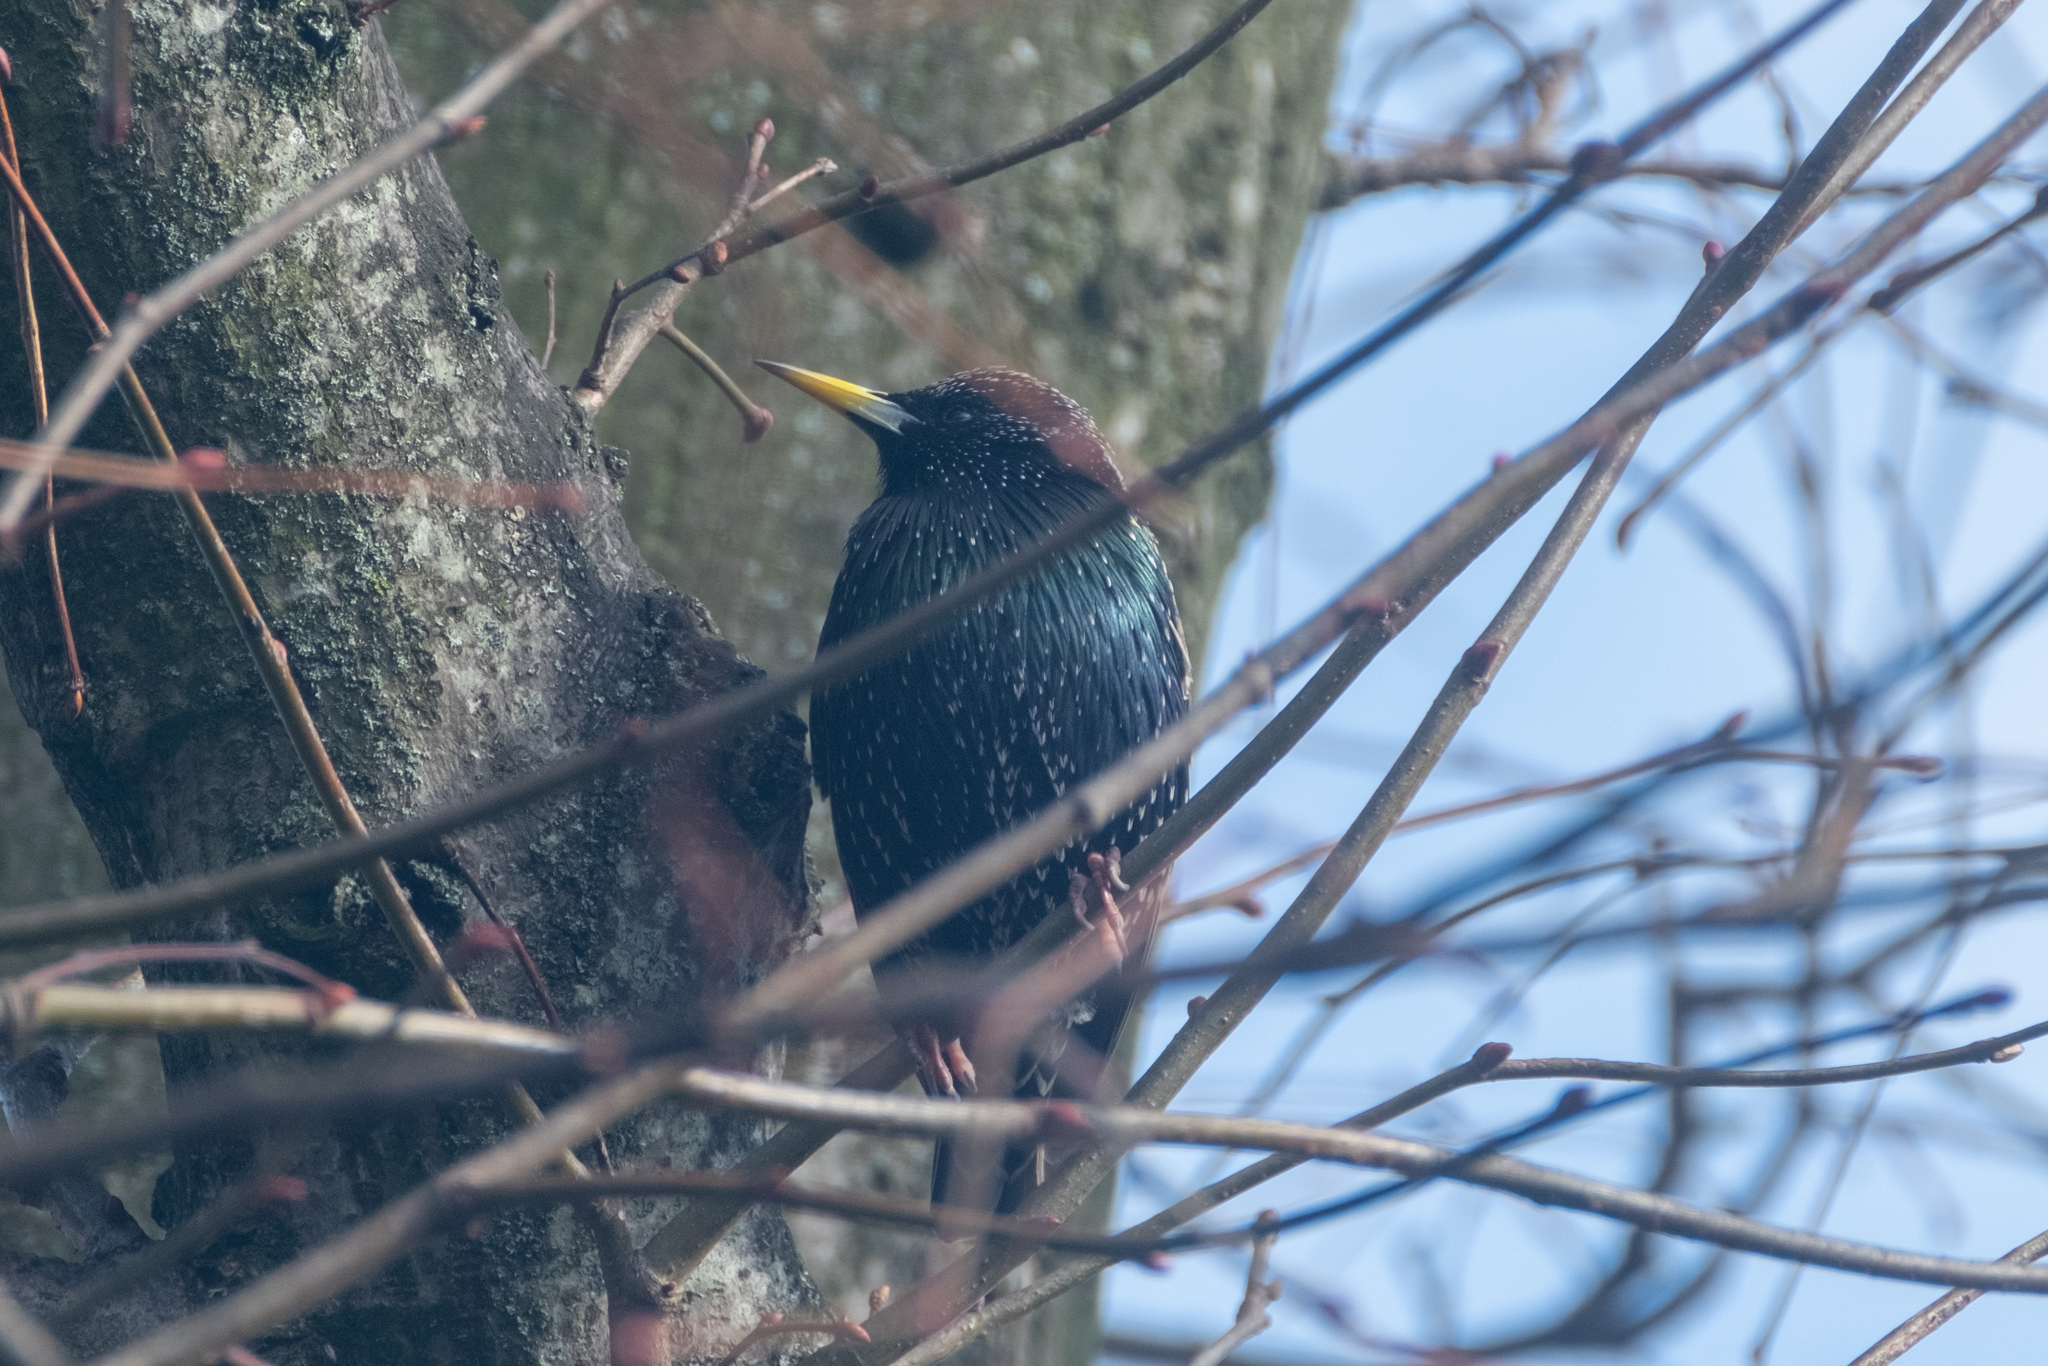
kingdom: Animalia
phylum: Chordata
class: Aves
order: Passeriformes
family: Sturnidae
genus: Sturnus
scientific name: Sturnus vulgaris
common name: Common starling
